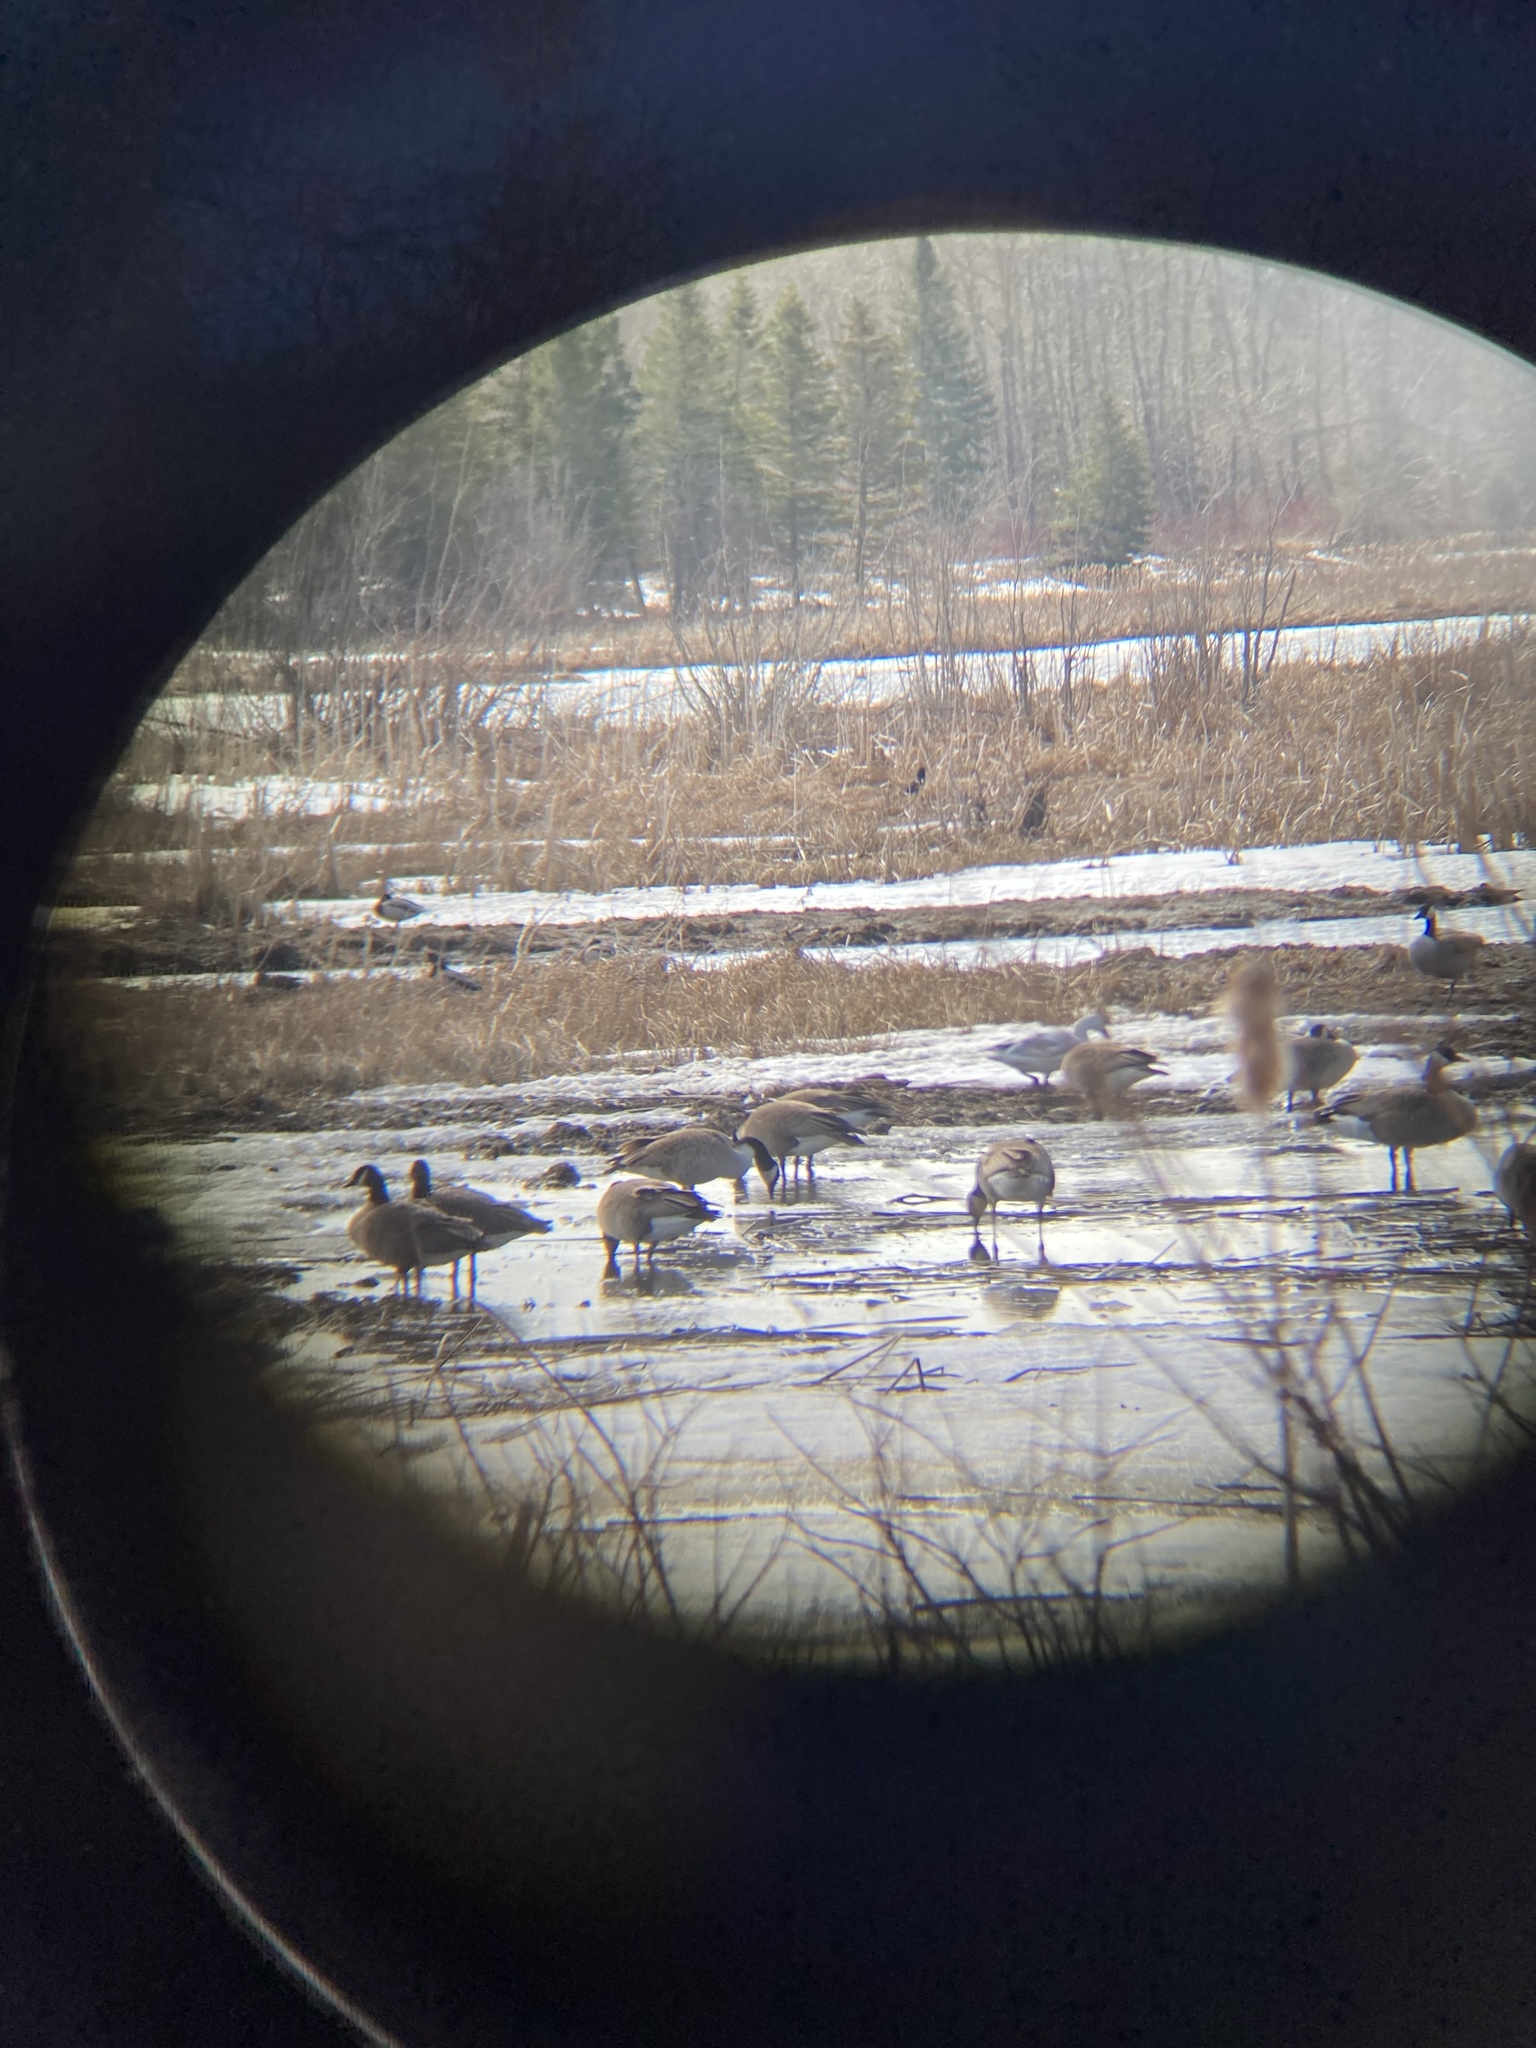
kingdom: Animalia
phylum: Chordata
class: Aves
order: Anseriformes
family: Anatidae
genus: Anser
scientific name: Anser caerulescens
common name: Snow goose
